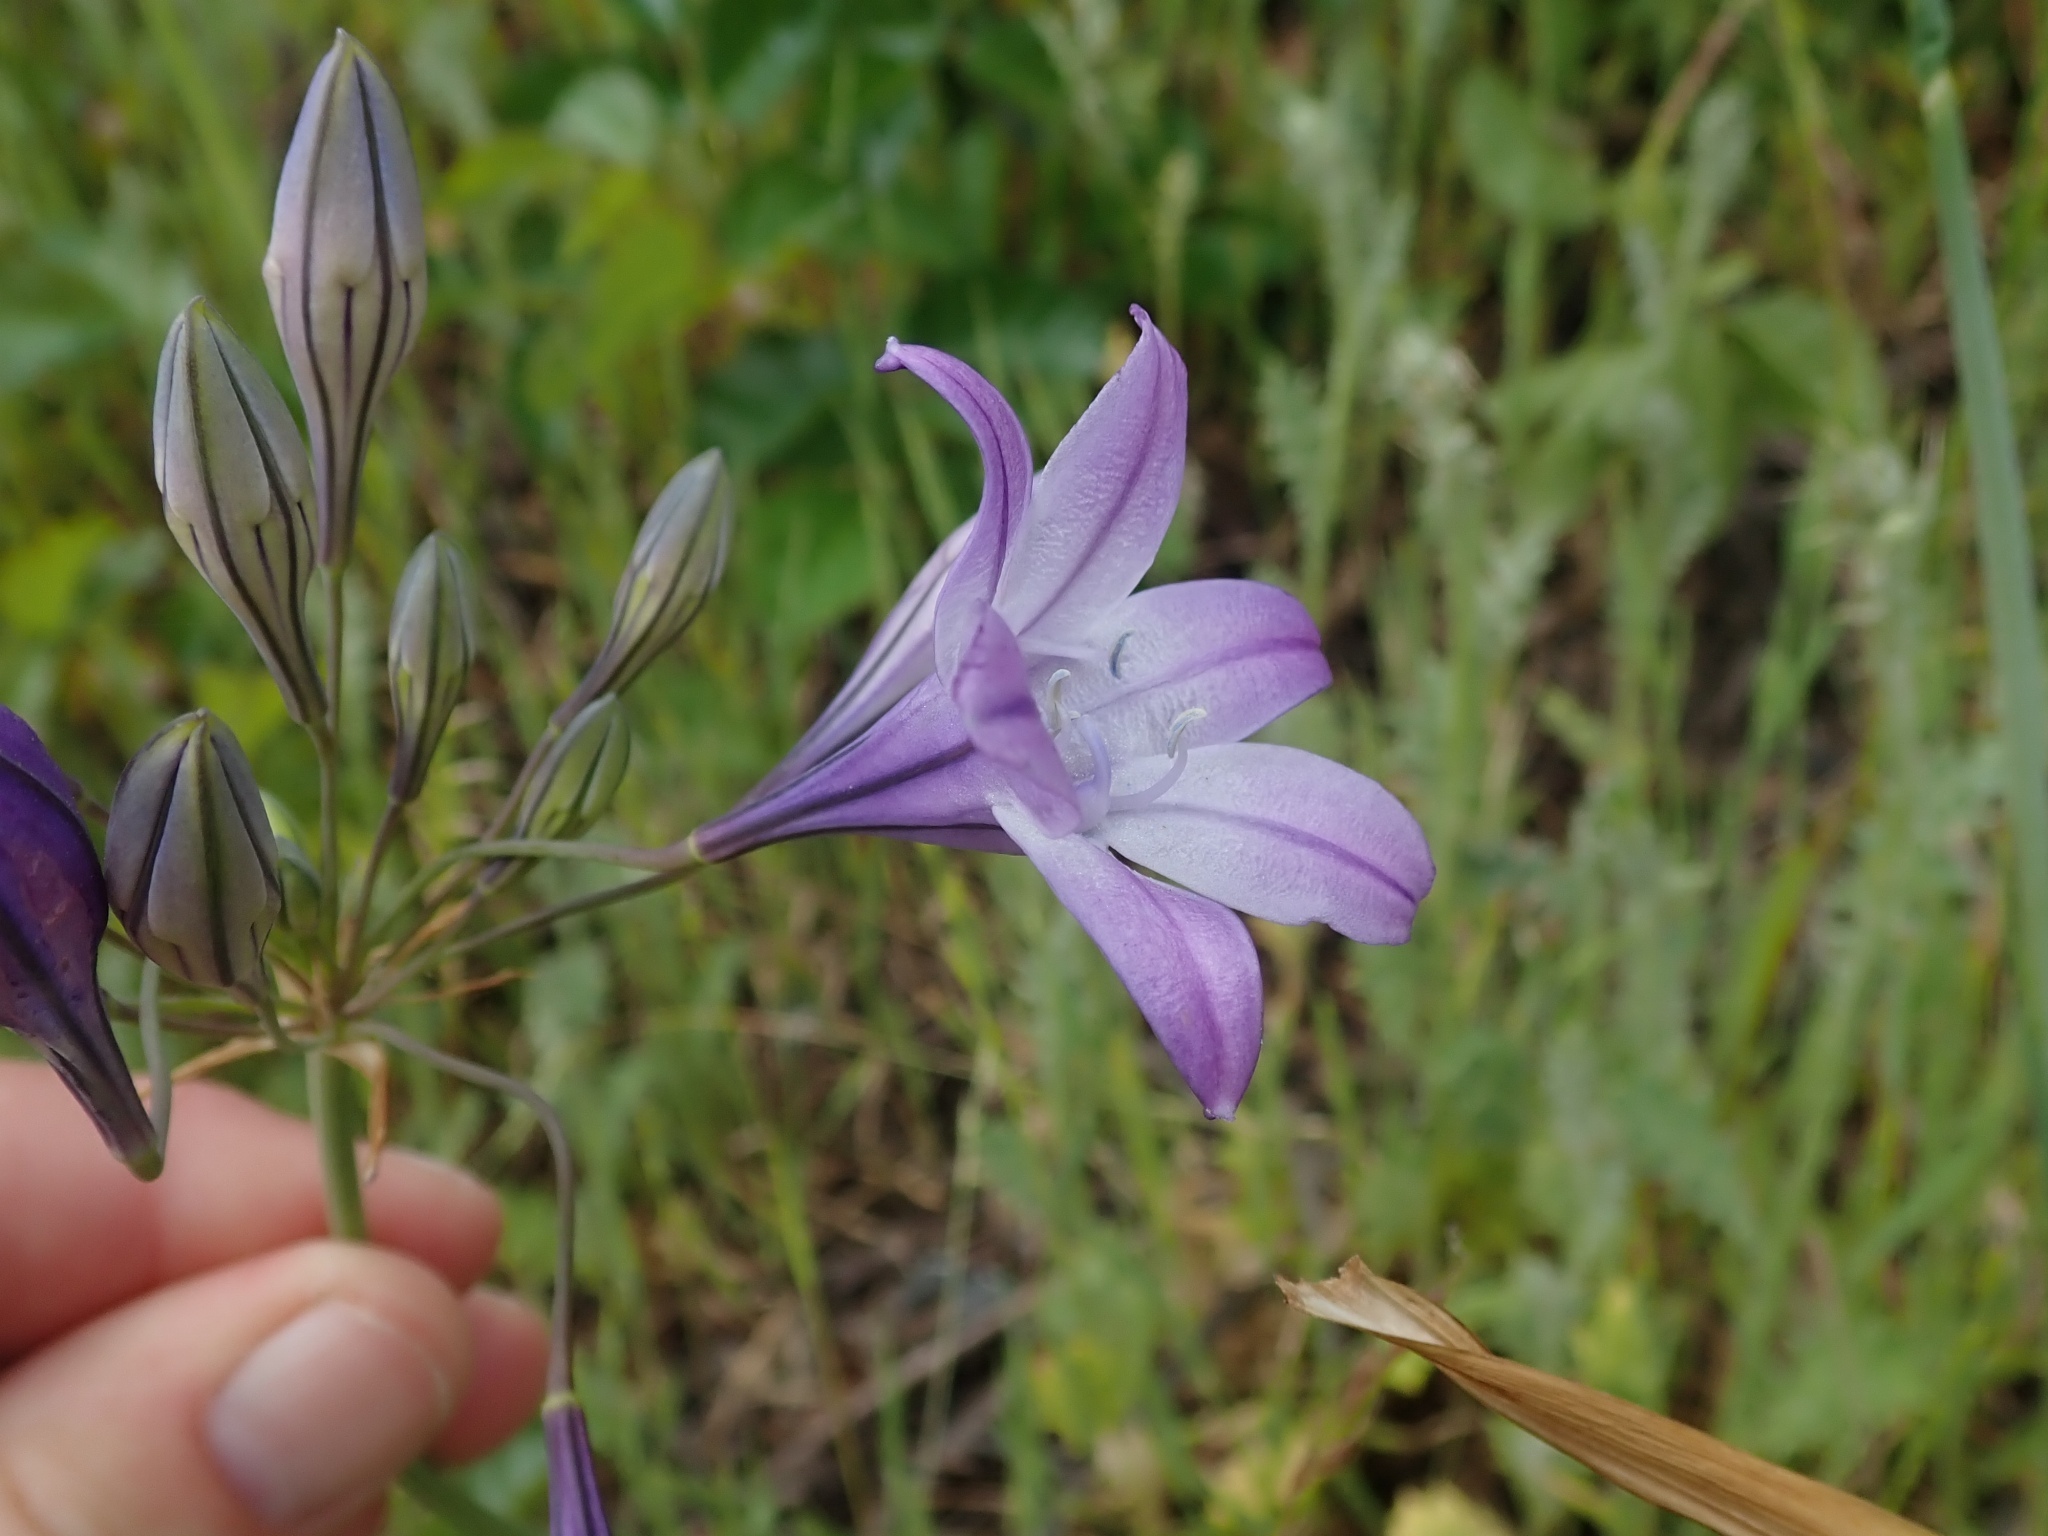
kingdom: Plantae
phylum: Tracheophyta
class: Liliopsida
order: Asparagales
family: Asparagaceae
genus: Triteleia
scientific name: Triteleia laxa
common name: Triplet-lily
